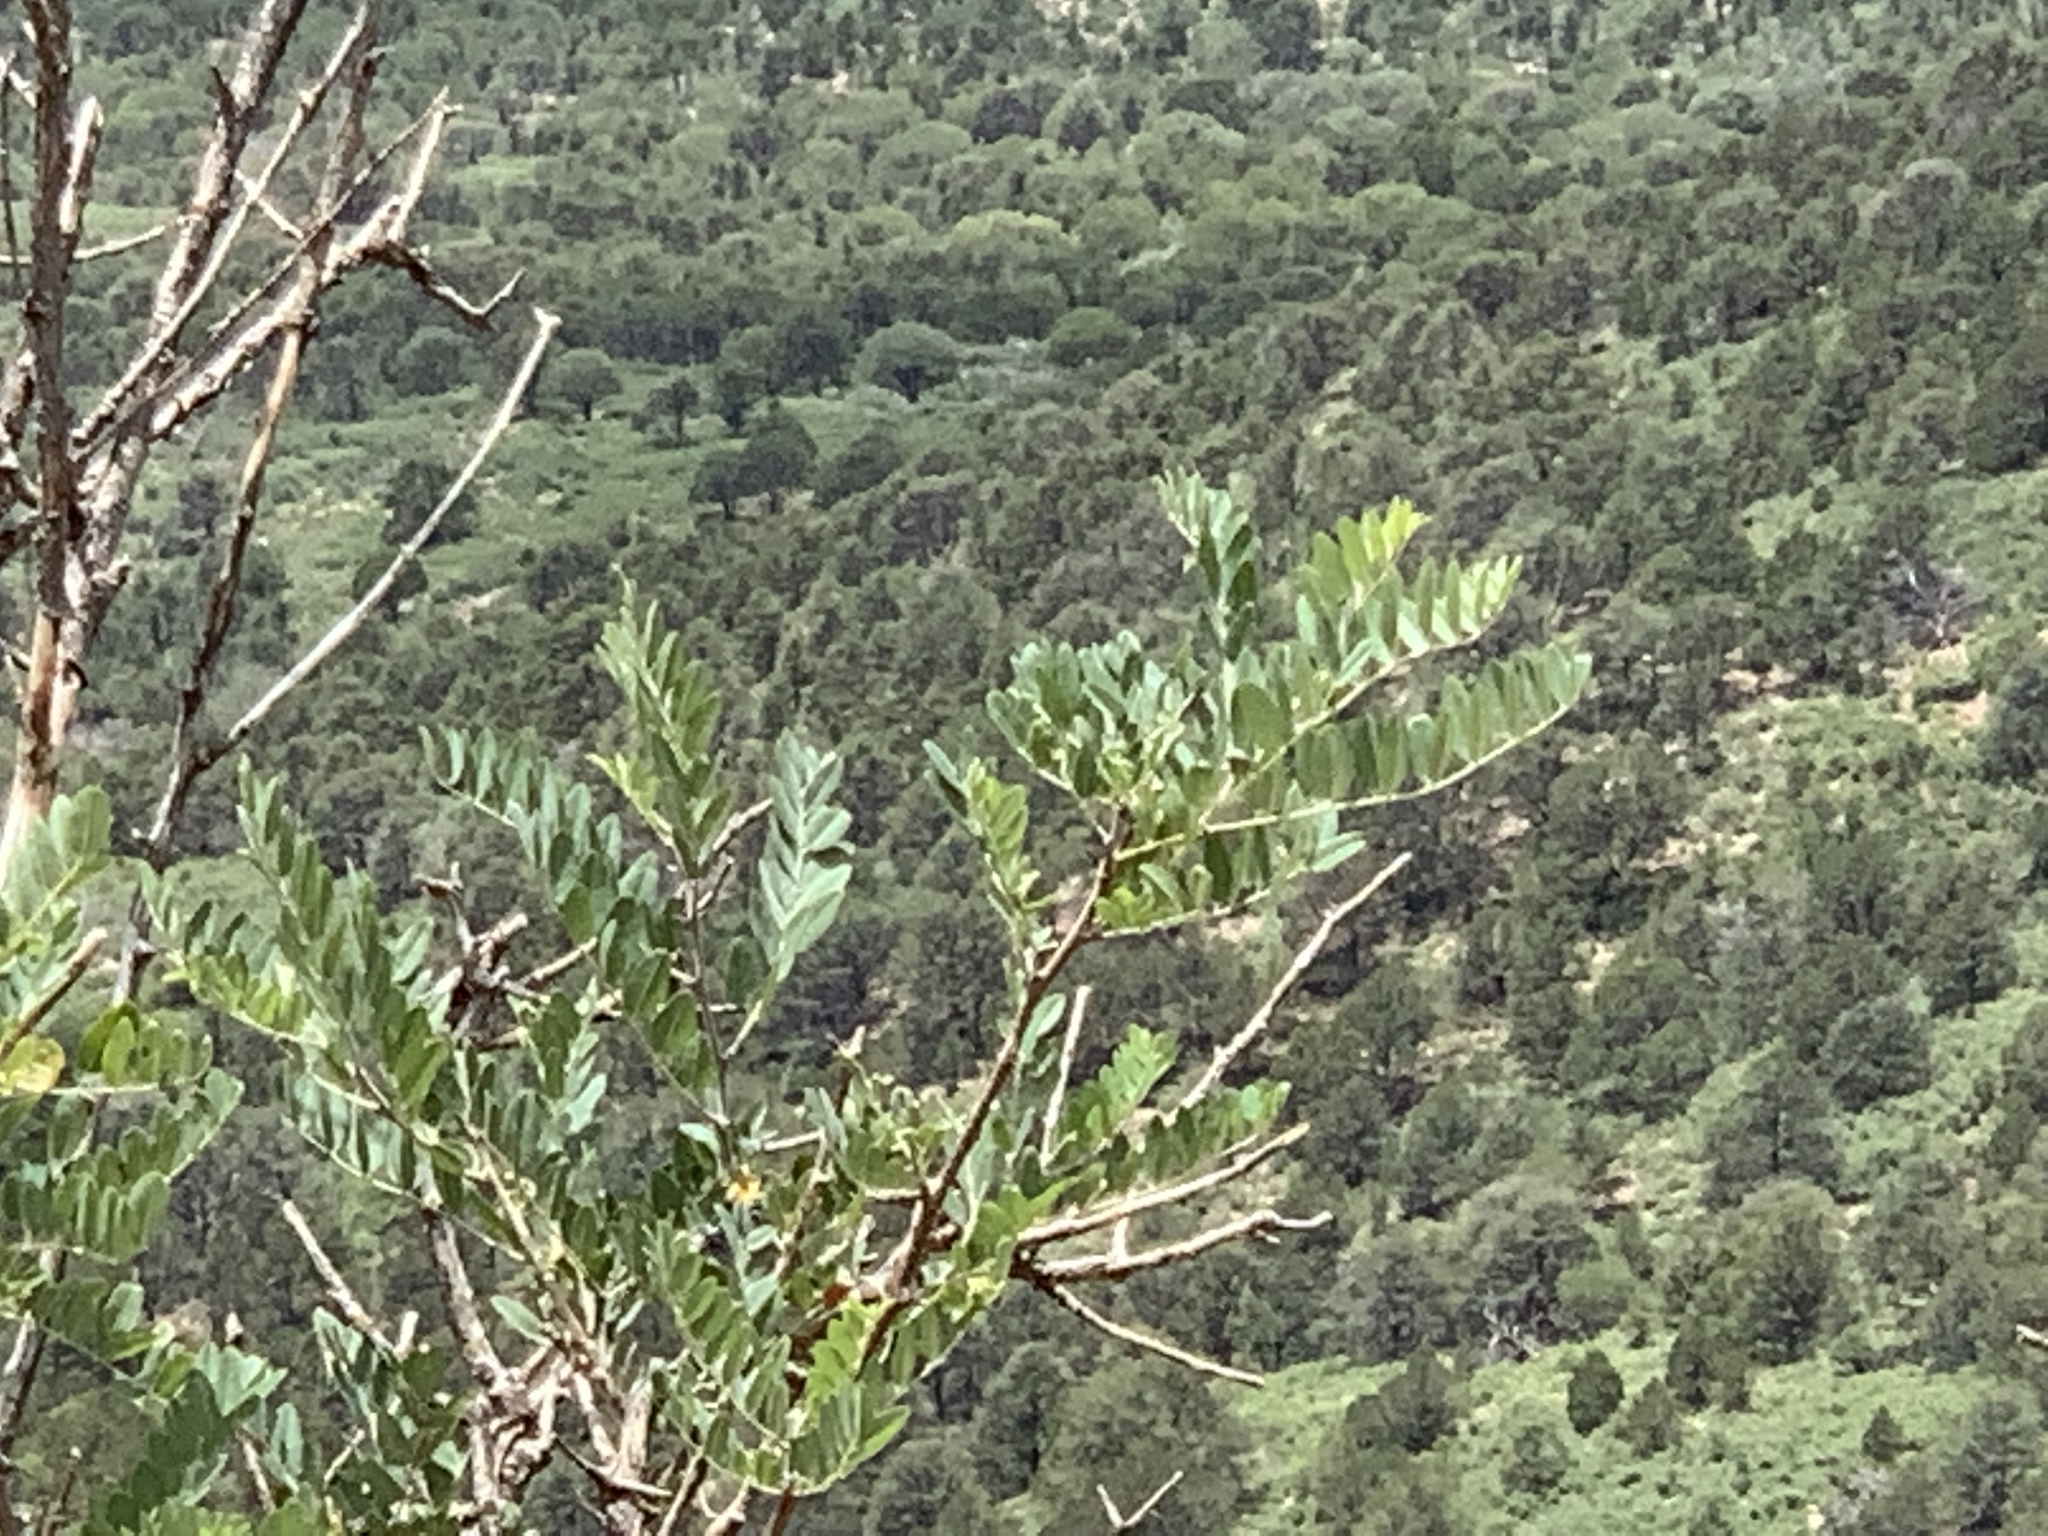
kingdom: Plantae
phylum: Tracheophyta
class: Magnoliopsida
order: Fabales
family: Fabaceae
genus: Robinia
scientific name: Robinia neomexicana
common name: New mexico locust
